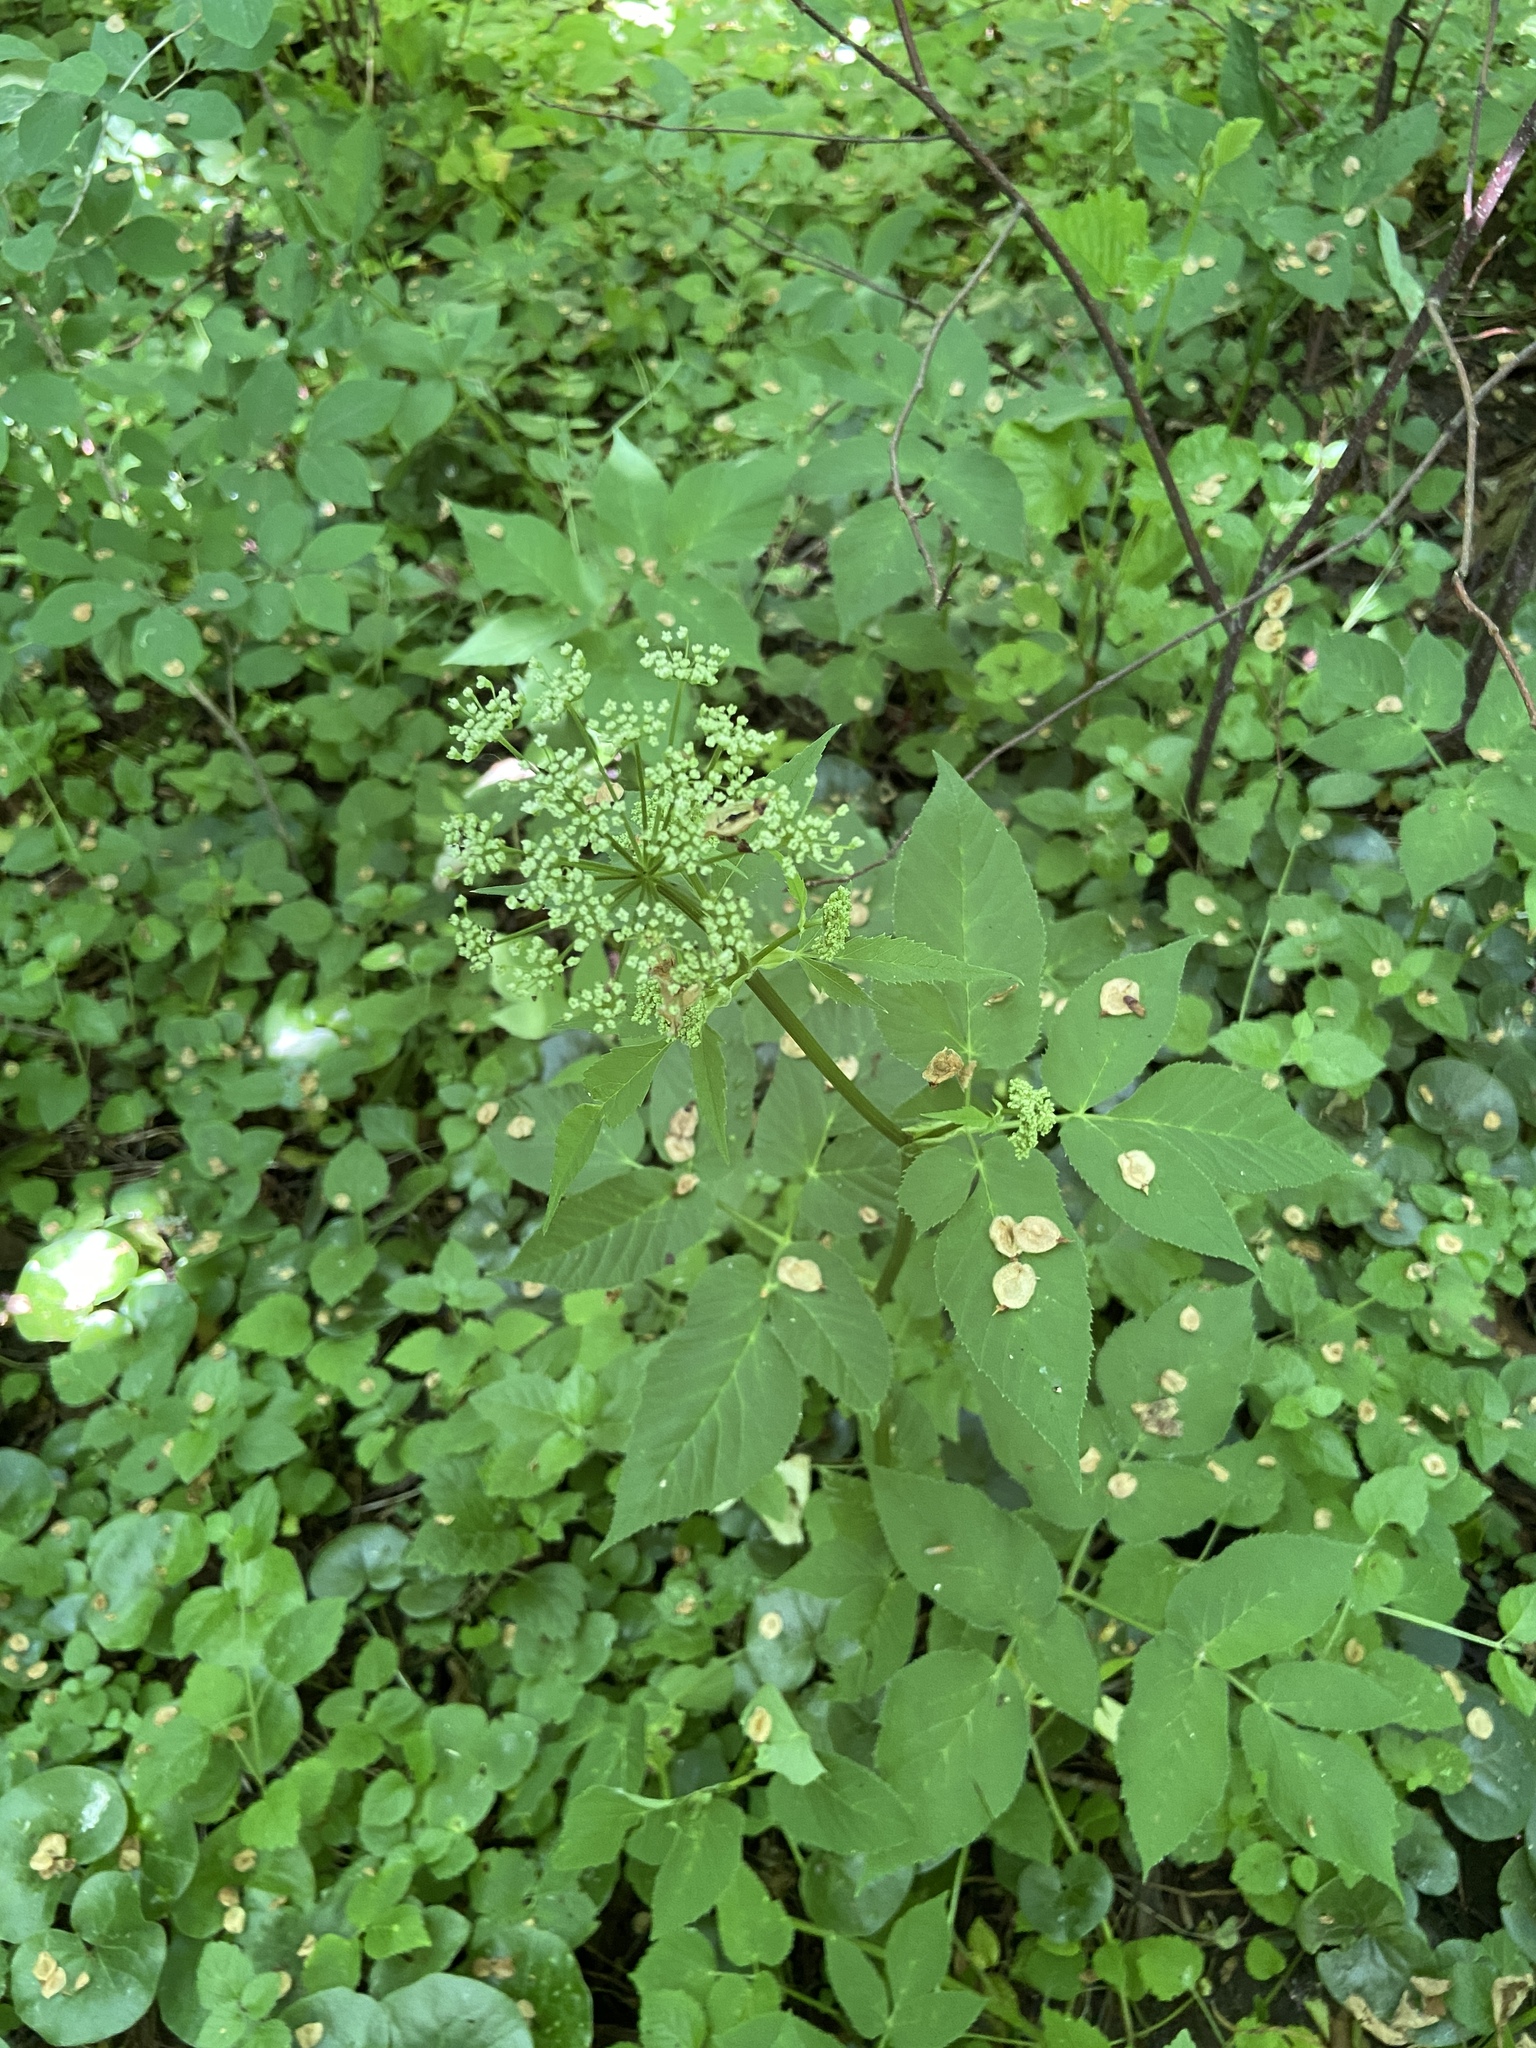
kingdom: Plantae
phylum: Tracheophyta
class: Magnoliopsida
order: Apiales
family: Apiaceae
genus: Aegopodium
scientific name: Aegopodium podagraria
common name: Ground-elder
